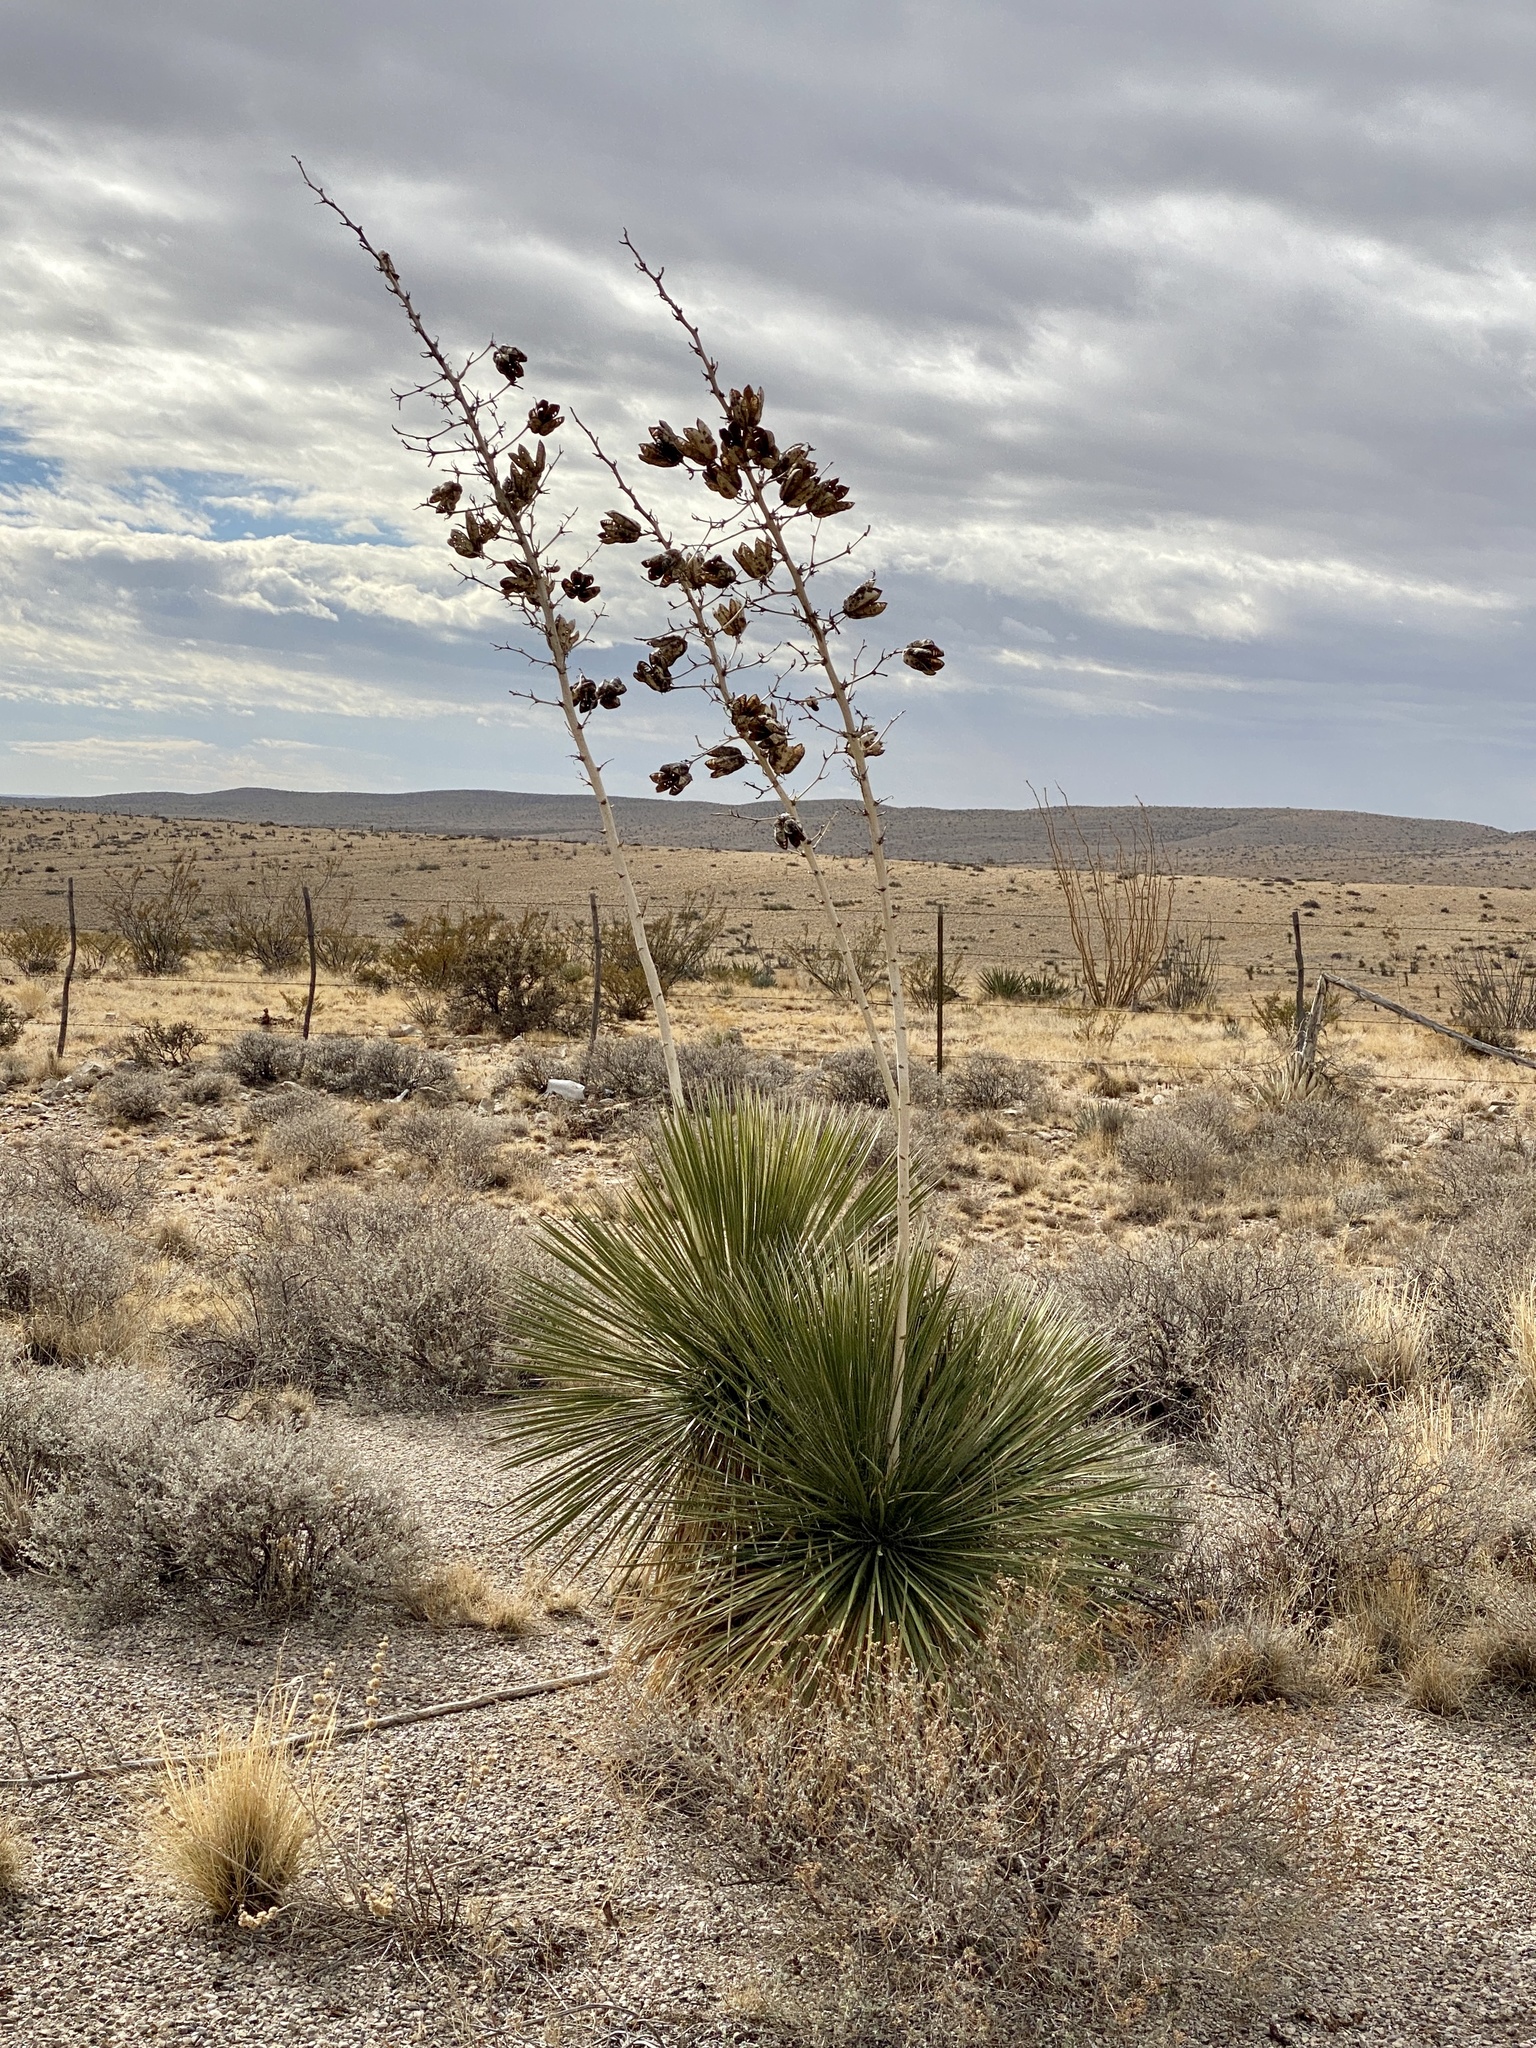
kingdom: Plantae
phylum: Tracheophyta
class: Liliopsida
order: Asparagales
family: Asparagaceae
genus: Yucca
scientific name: Yucca elata
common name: Palmella
